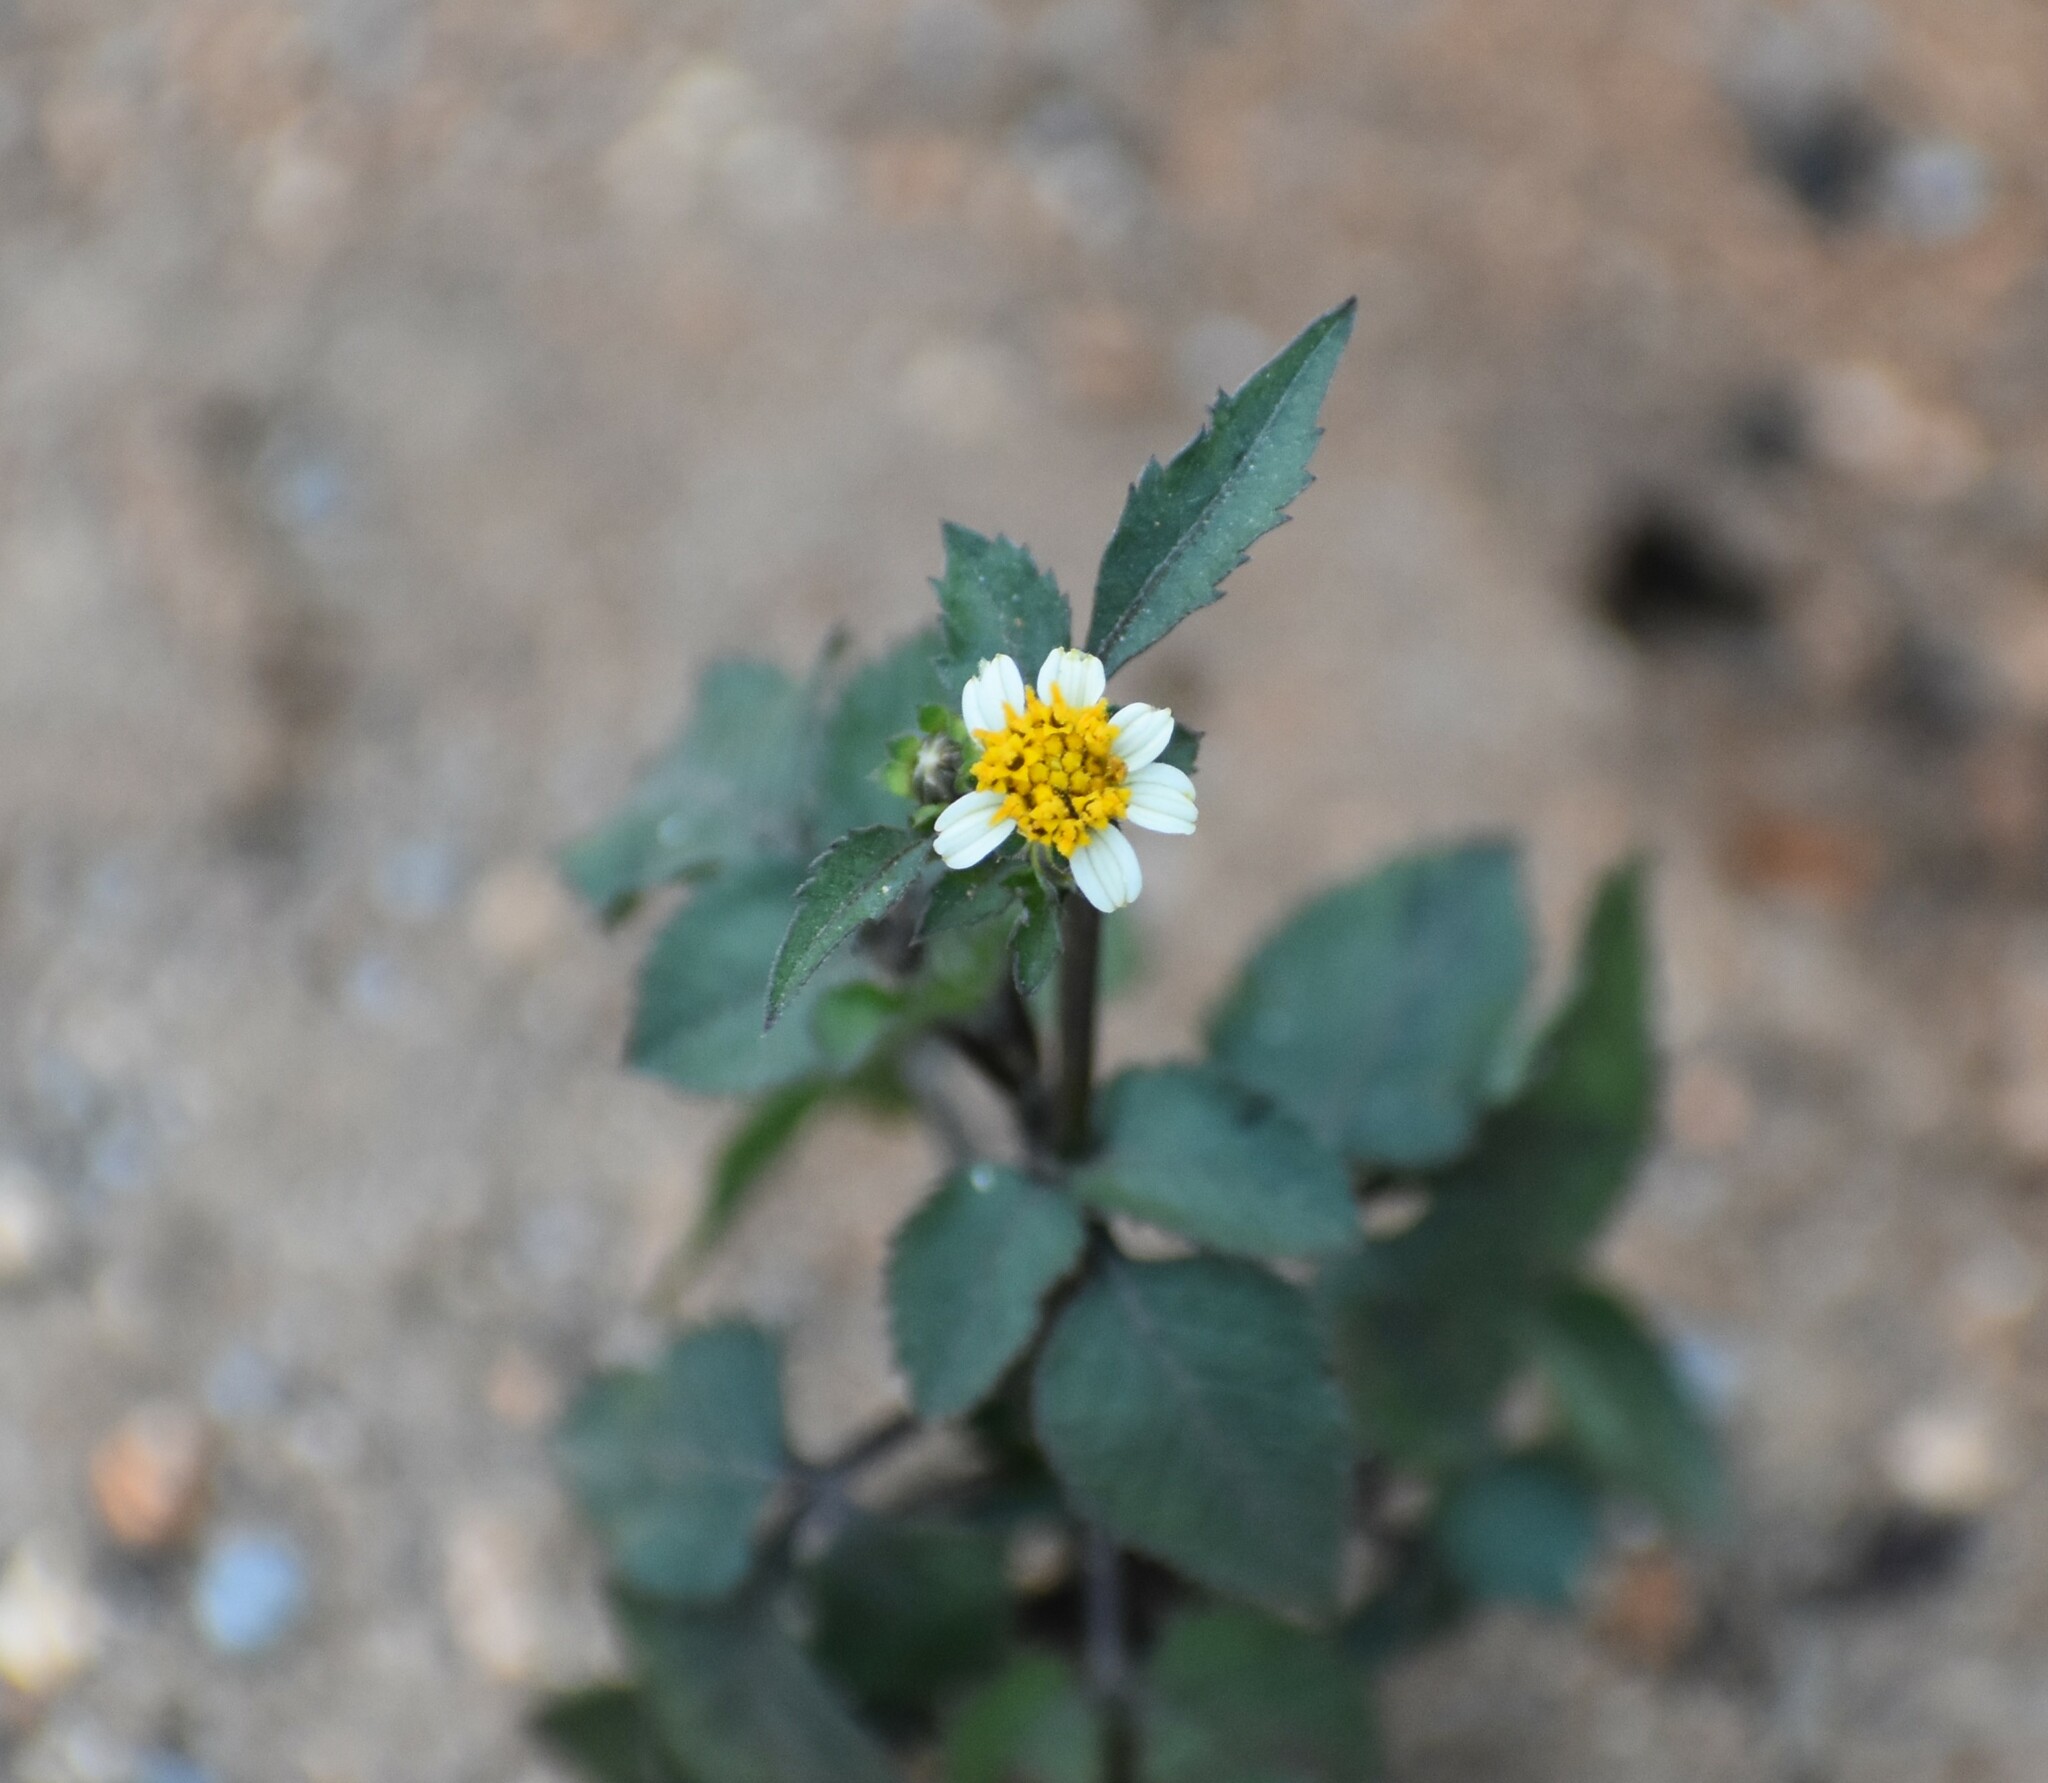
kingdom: Plantae
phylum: Tracheophyta
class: Magnoliopsida
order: Asterales
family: Asteraceae
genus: Bidens
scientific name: Bidens pilosa
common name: Black-jack
